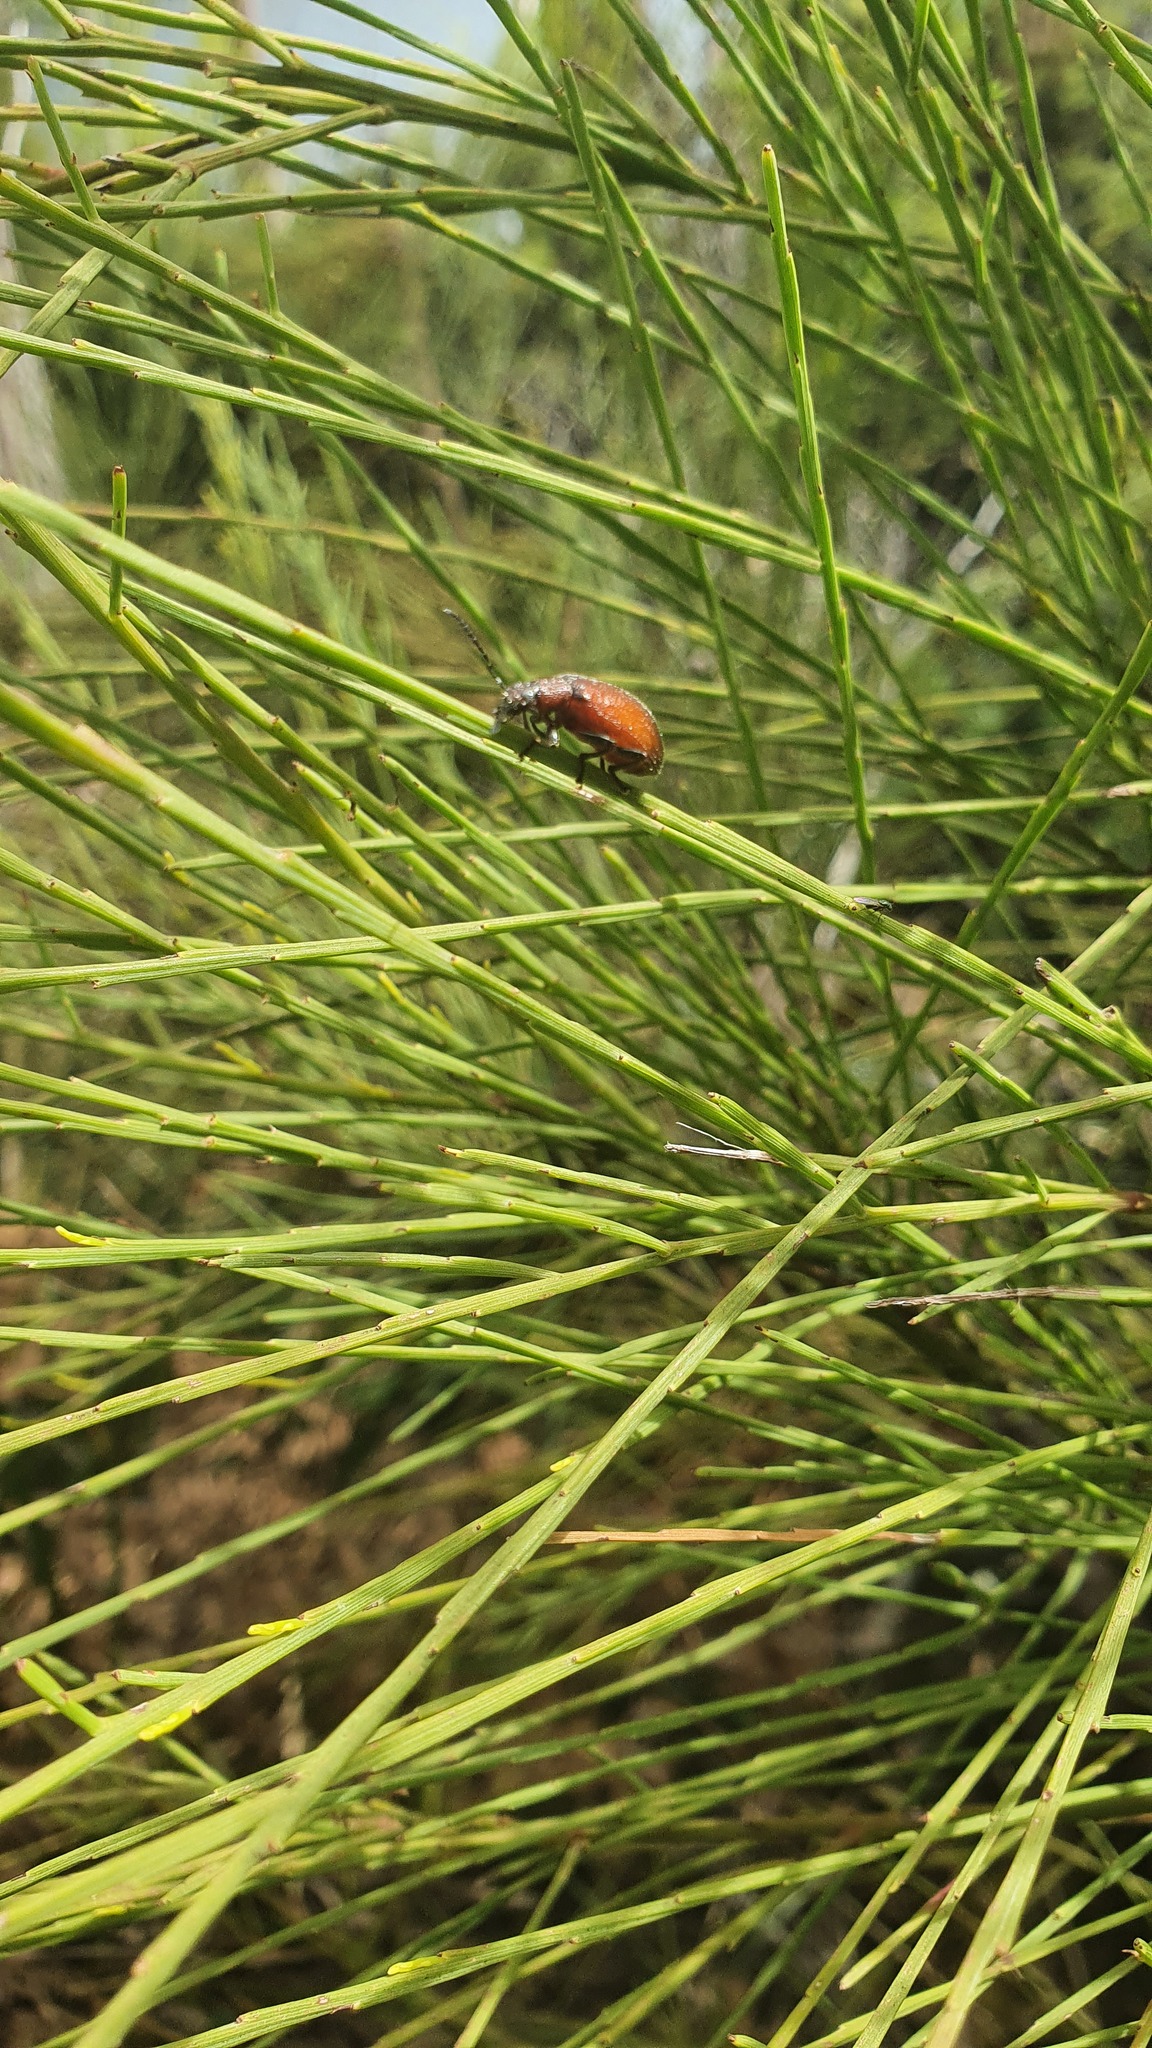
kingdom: Animalia
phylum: Arthropoda
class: Insecta
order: Coleoptera
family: Tenebrionidae
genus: Ecnolagria
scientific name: Ecnolagria
